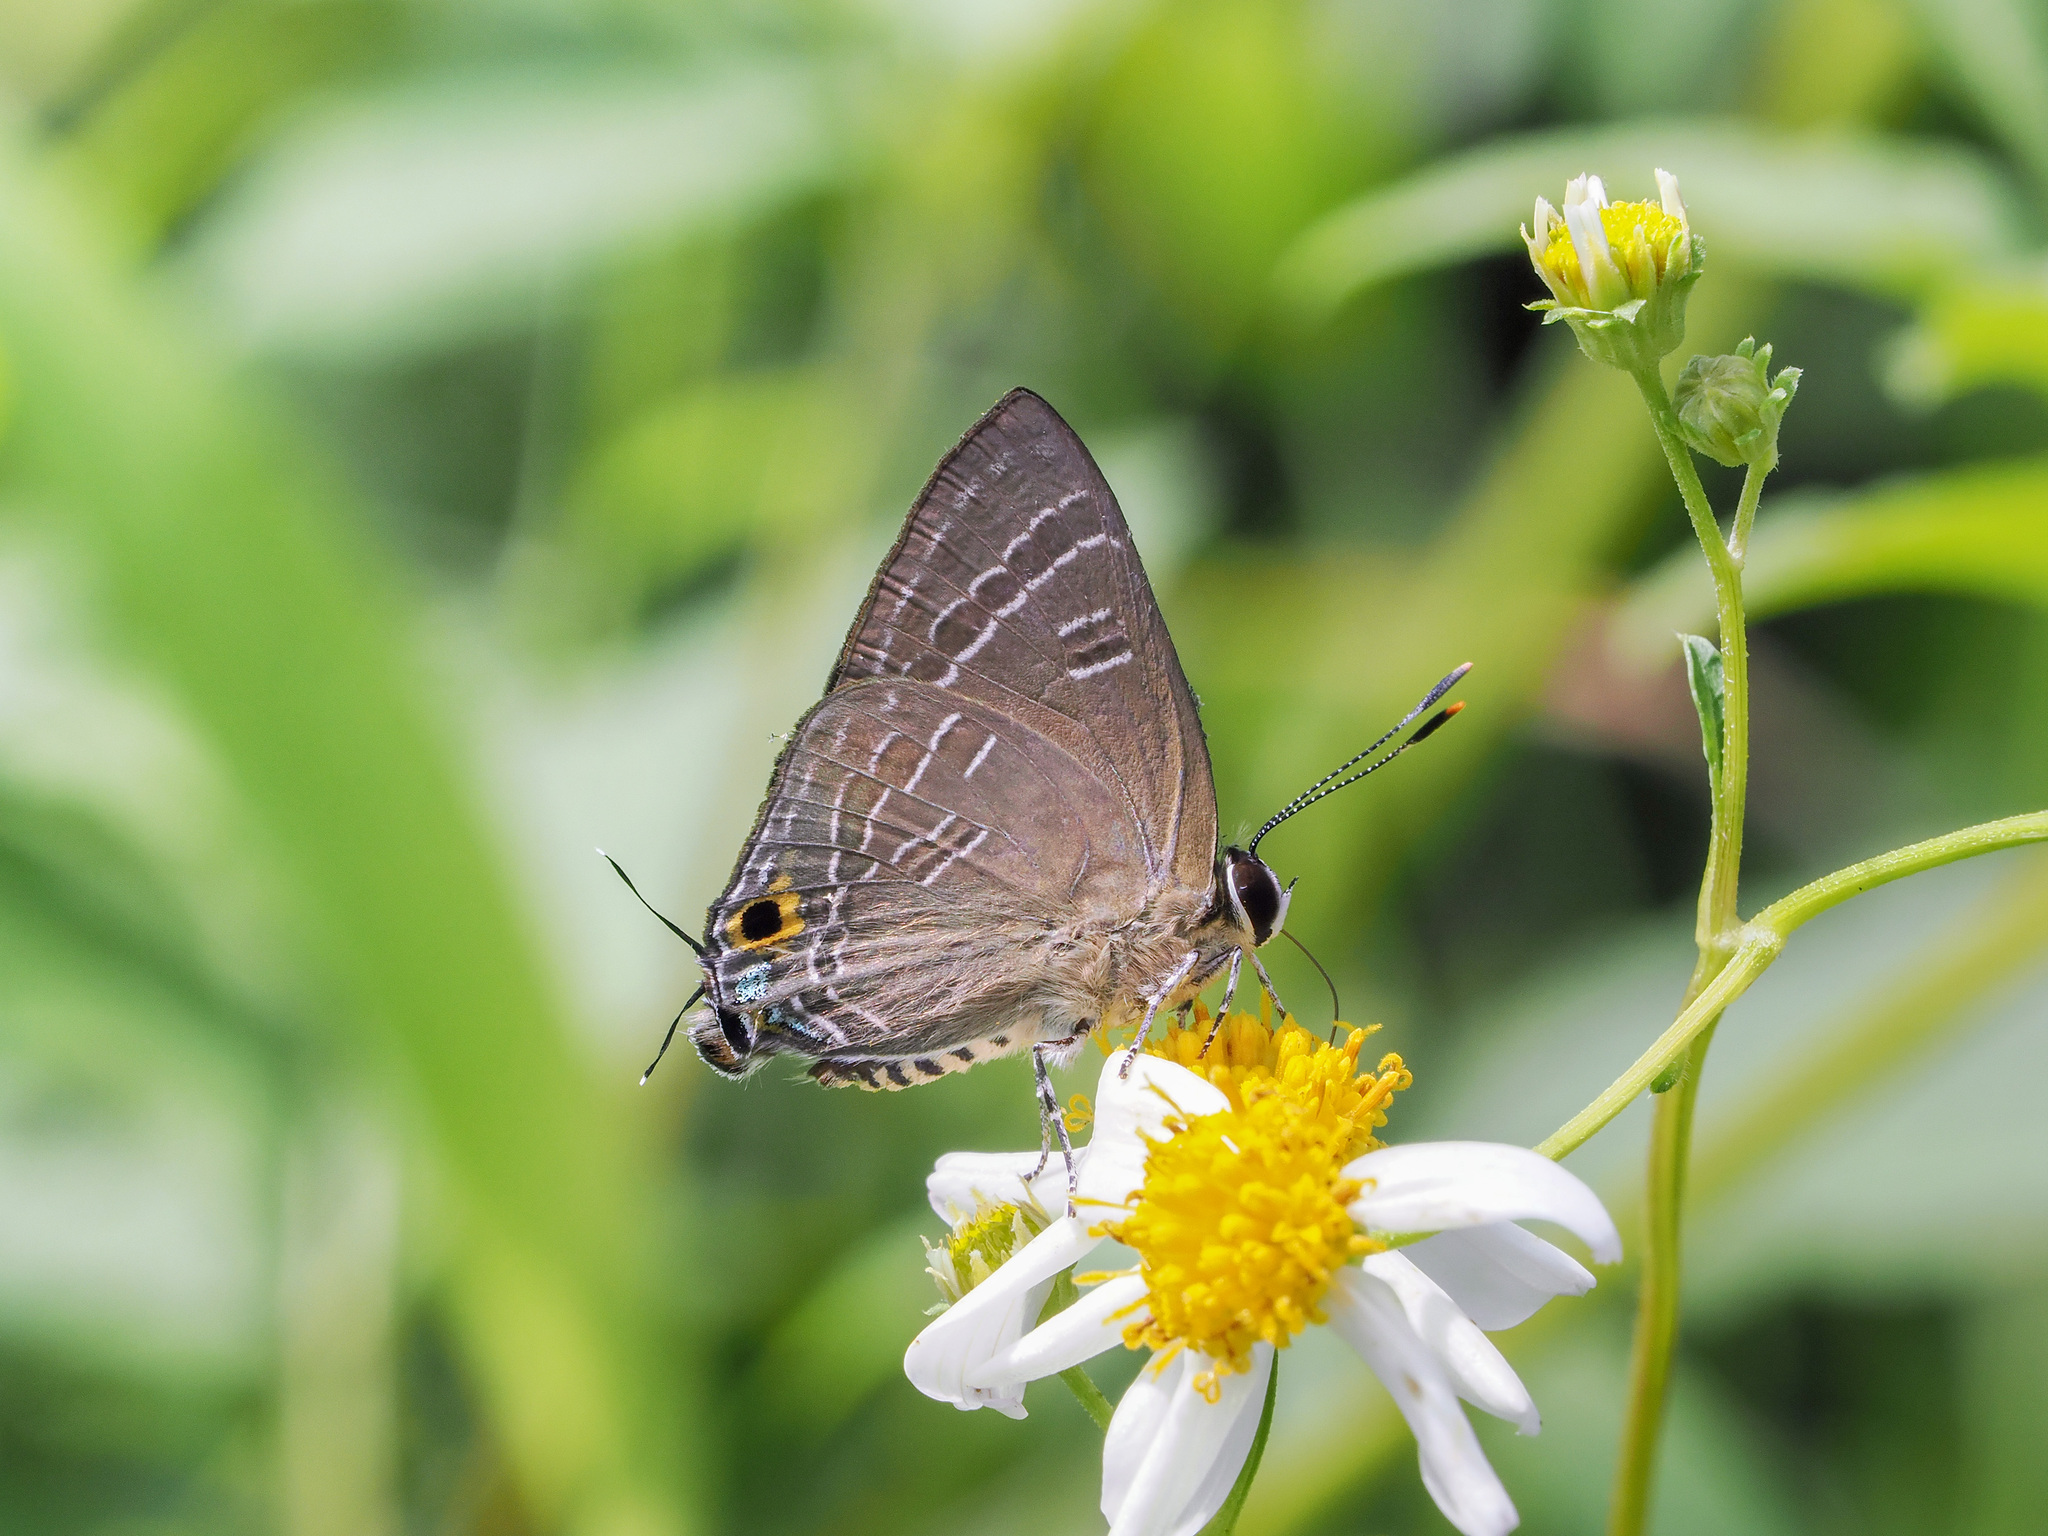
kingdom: Animalia
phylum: Arthropoda
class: Insecta
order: Lepidoptera
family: Lycaenidae
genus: Deudorix
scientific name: Deudorix epijarbas
